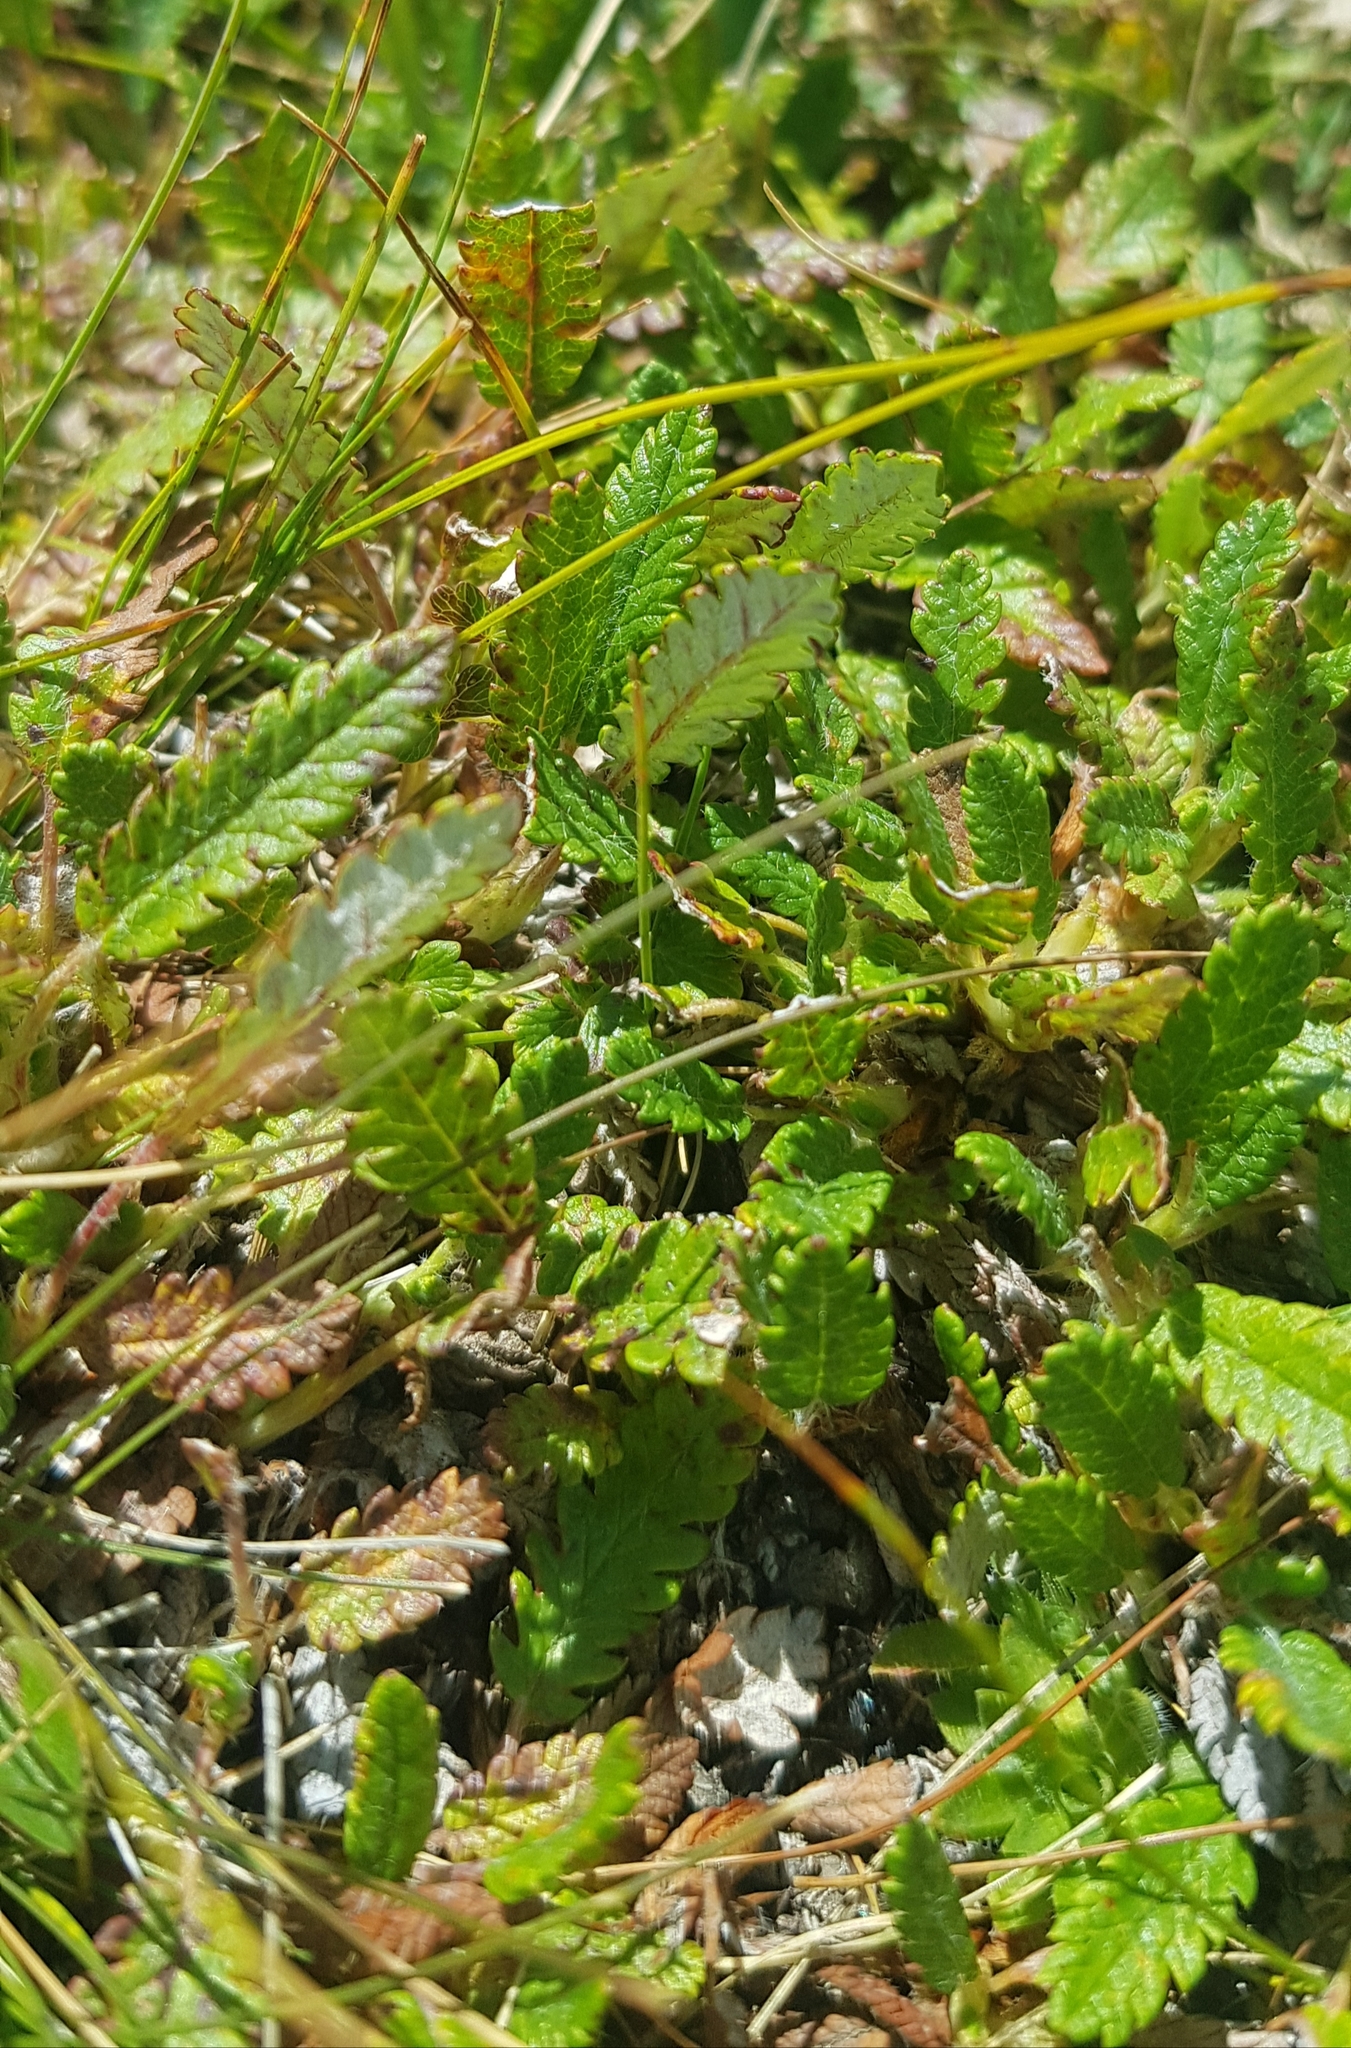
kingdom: Plantae
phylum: Tracheophyta
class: Magnoliopsida
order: Rosales
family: Rosaceae
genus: Dryas
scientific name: Dryas octopetala
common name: Eight-petal mountain-avens
